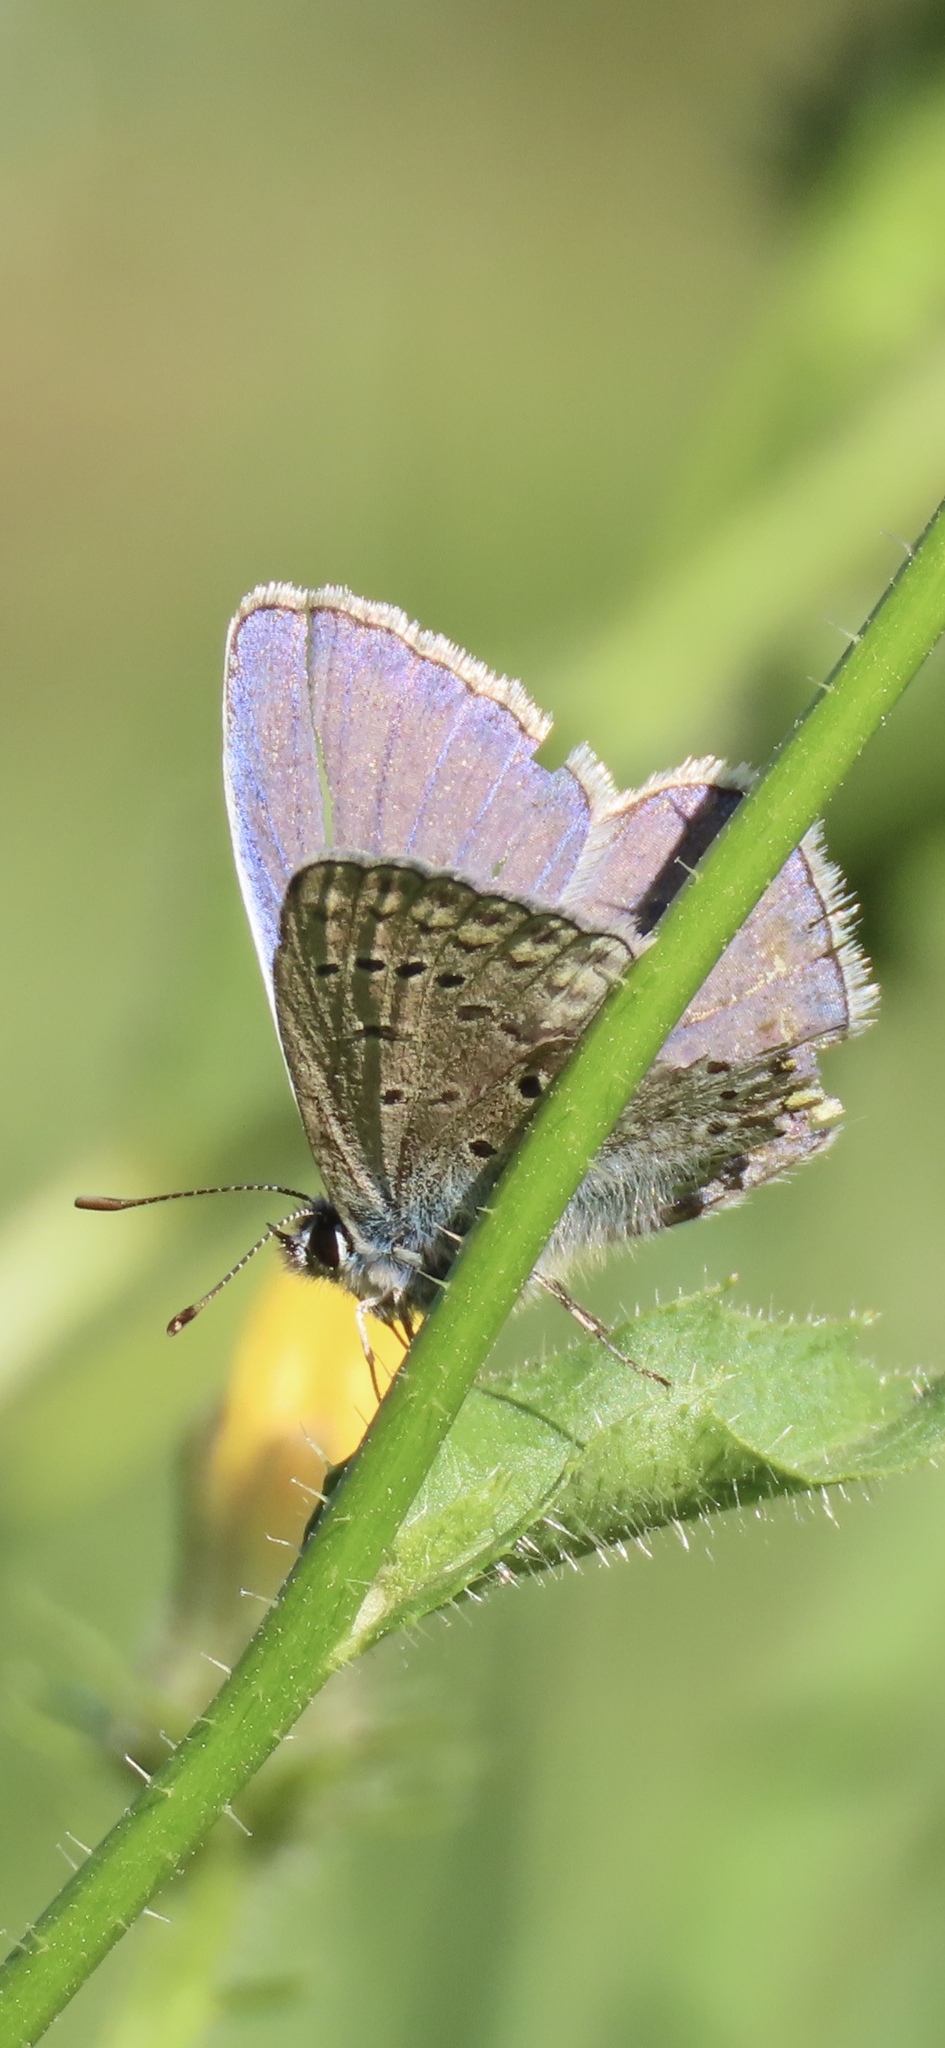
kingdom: Animalia
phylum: Arthropoda
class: Insecta
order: Lepidoptera
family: Lycaenidae
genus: Polyommatus
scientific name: Polyommatus icarus
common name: Common blue
